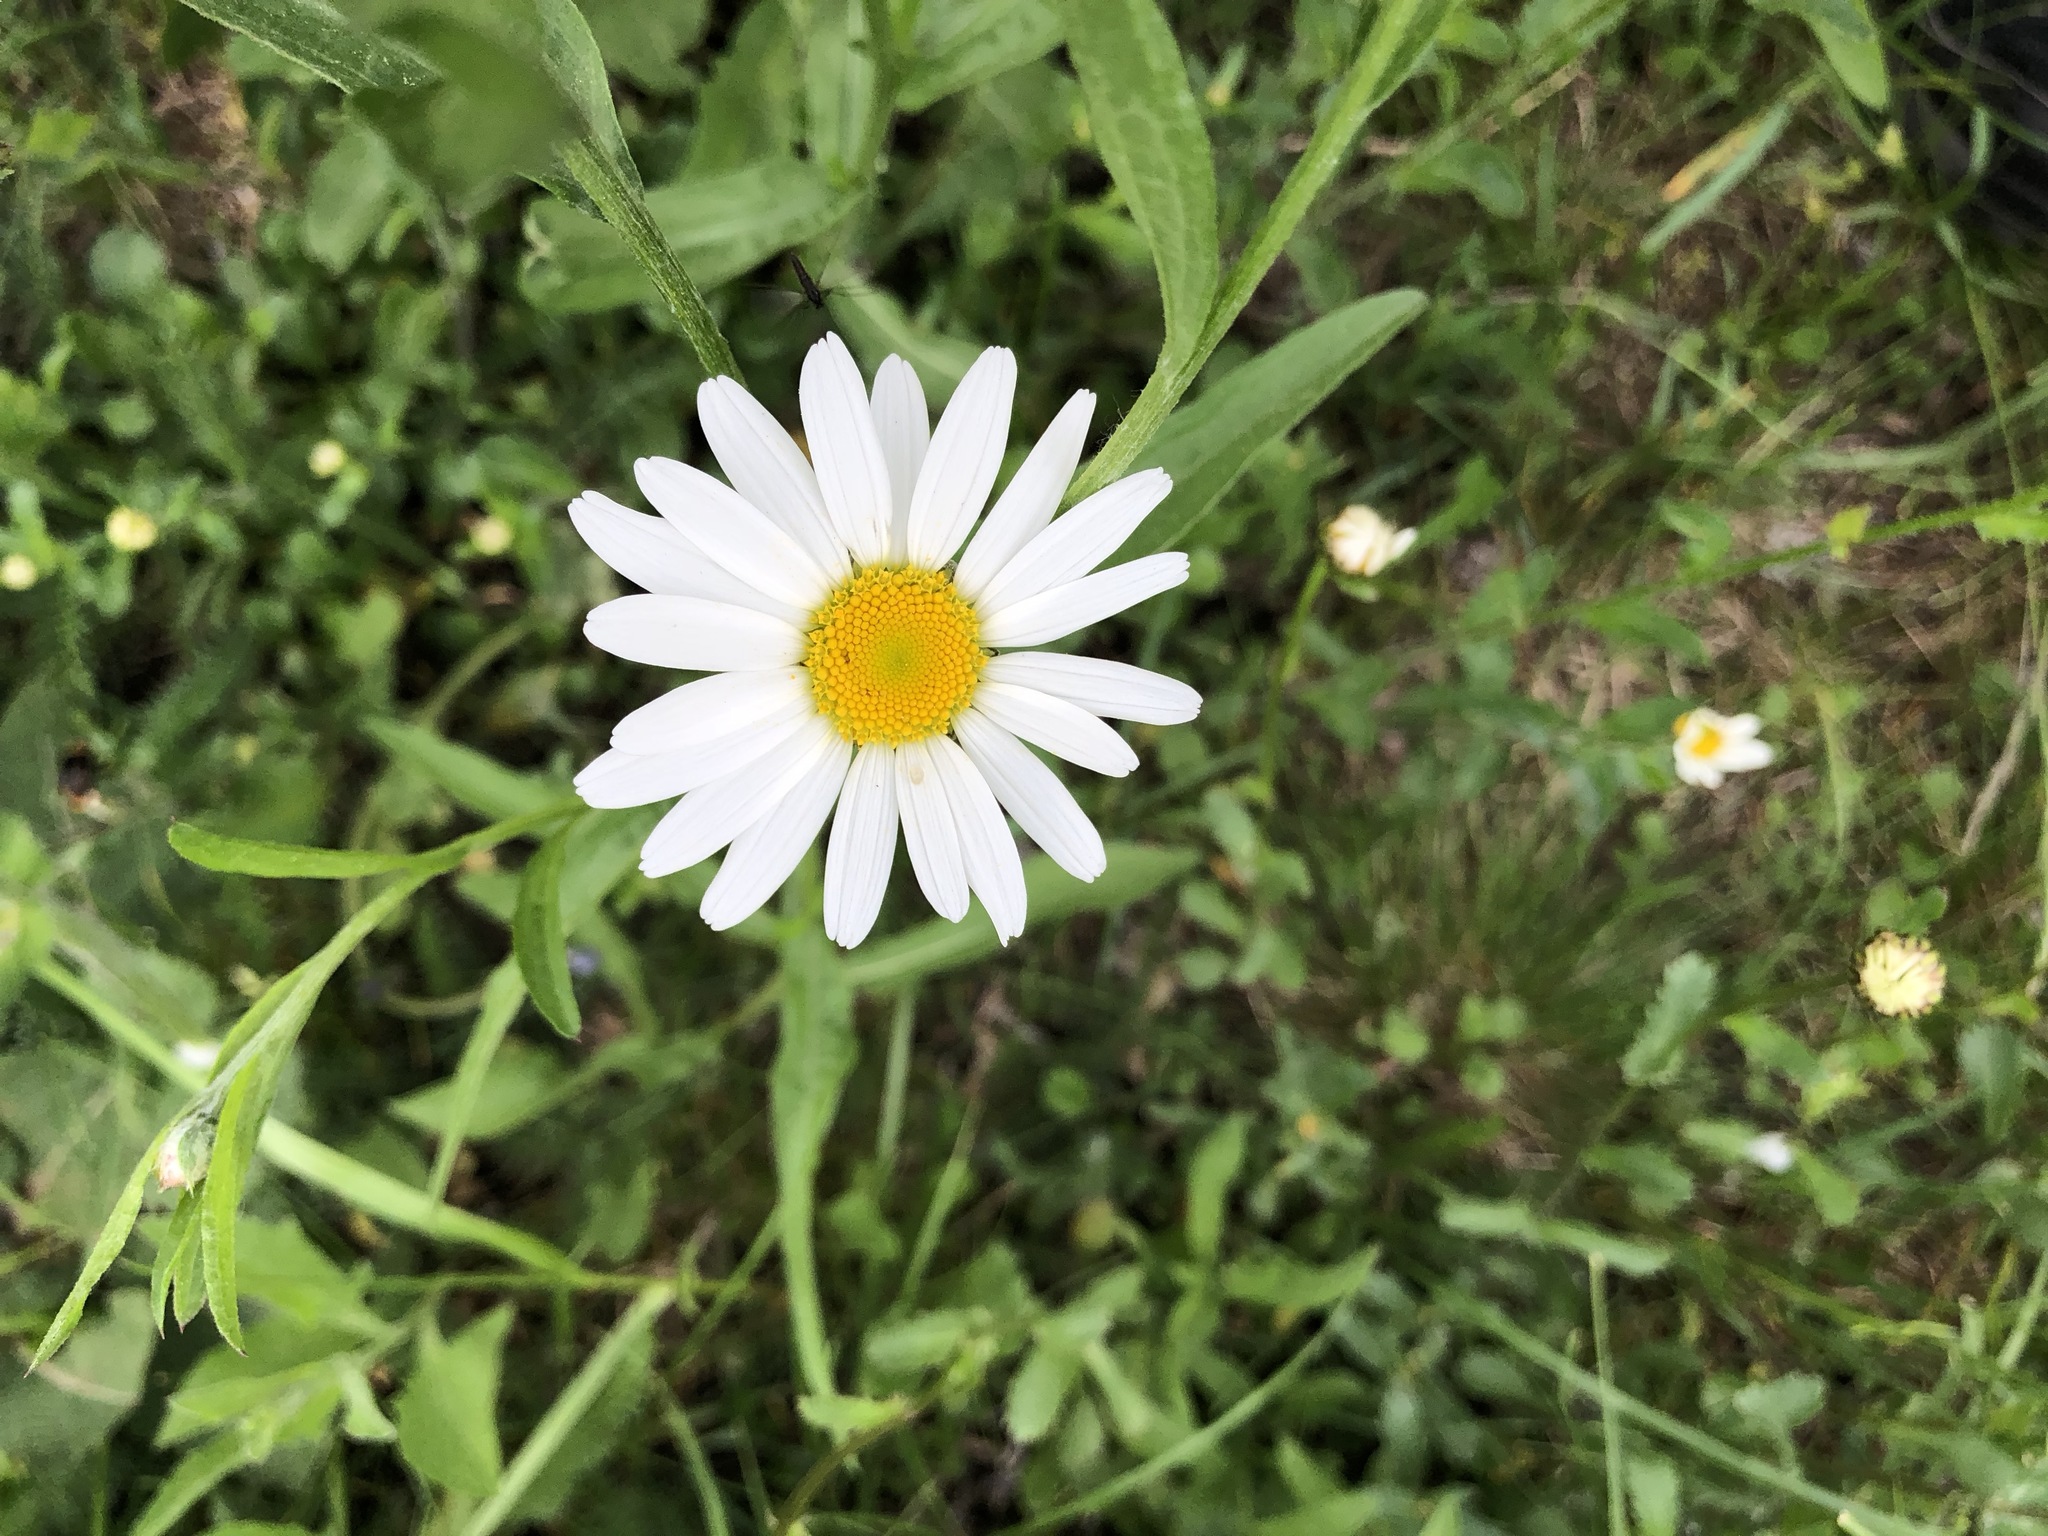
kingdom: Plantae
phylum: Tracheophyta
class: Magnoliopsida
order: Asterales
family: Asteraceae
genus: Leucanthemum
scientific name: Leucanthemum vulgare
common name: Oxeye daisy
